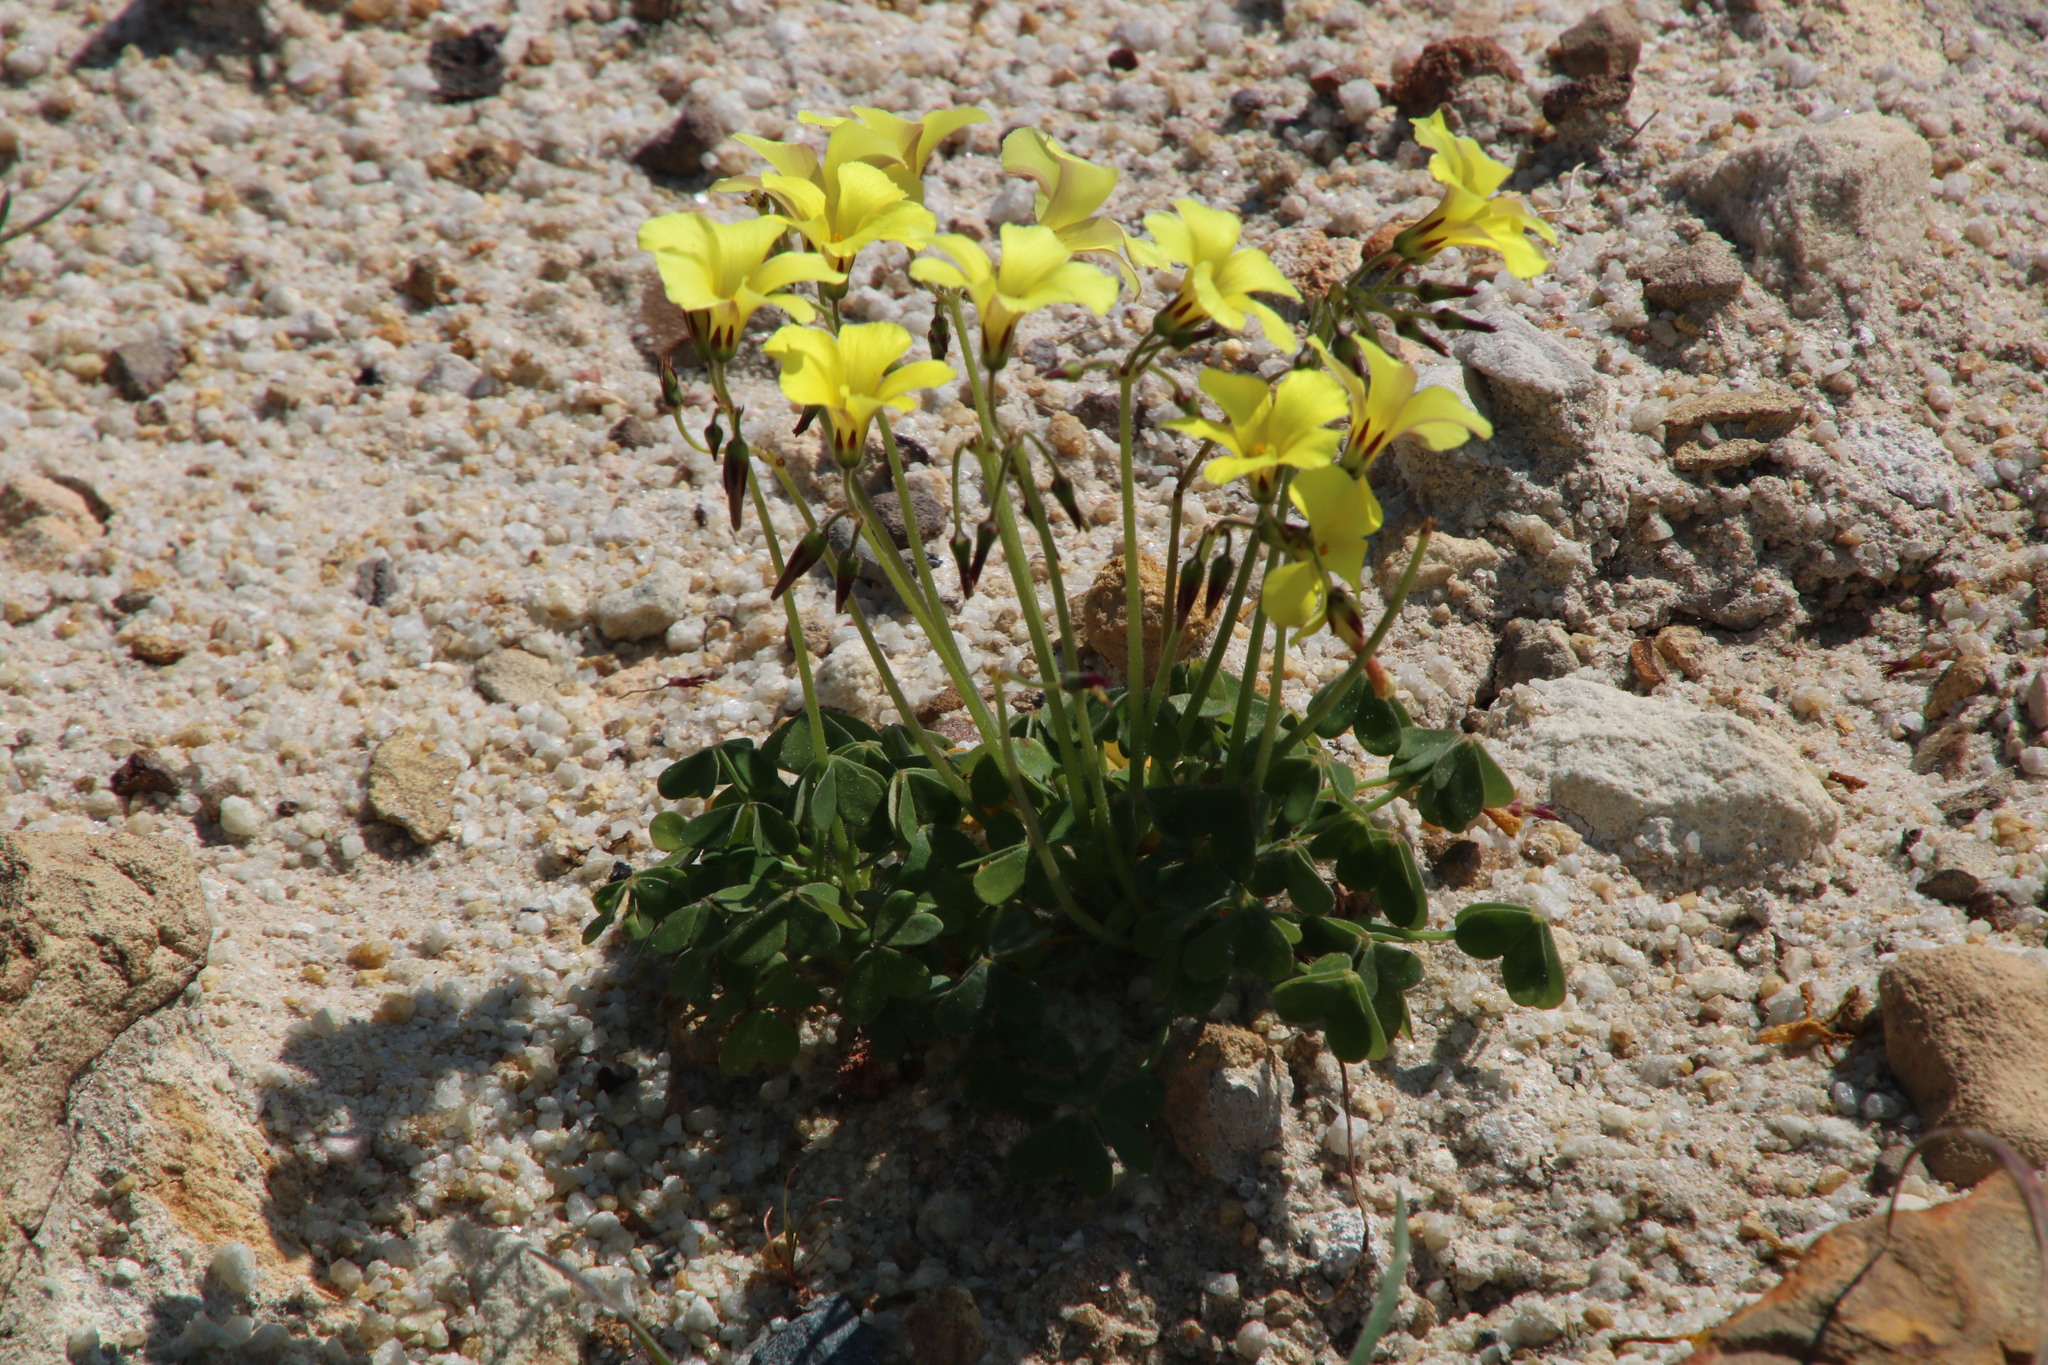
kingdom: Plantae
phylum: Tracheophyta
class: Magnoliopsida
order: Oxalidales
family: Oxalidaceae
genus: Oxalis
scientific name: Oxalis pes-caprae
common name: Bermuda-buttercup
